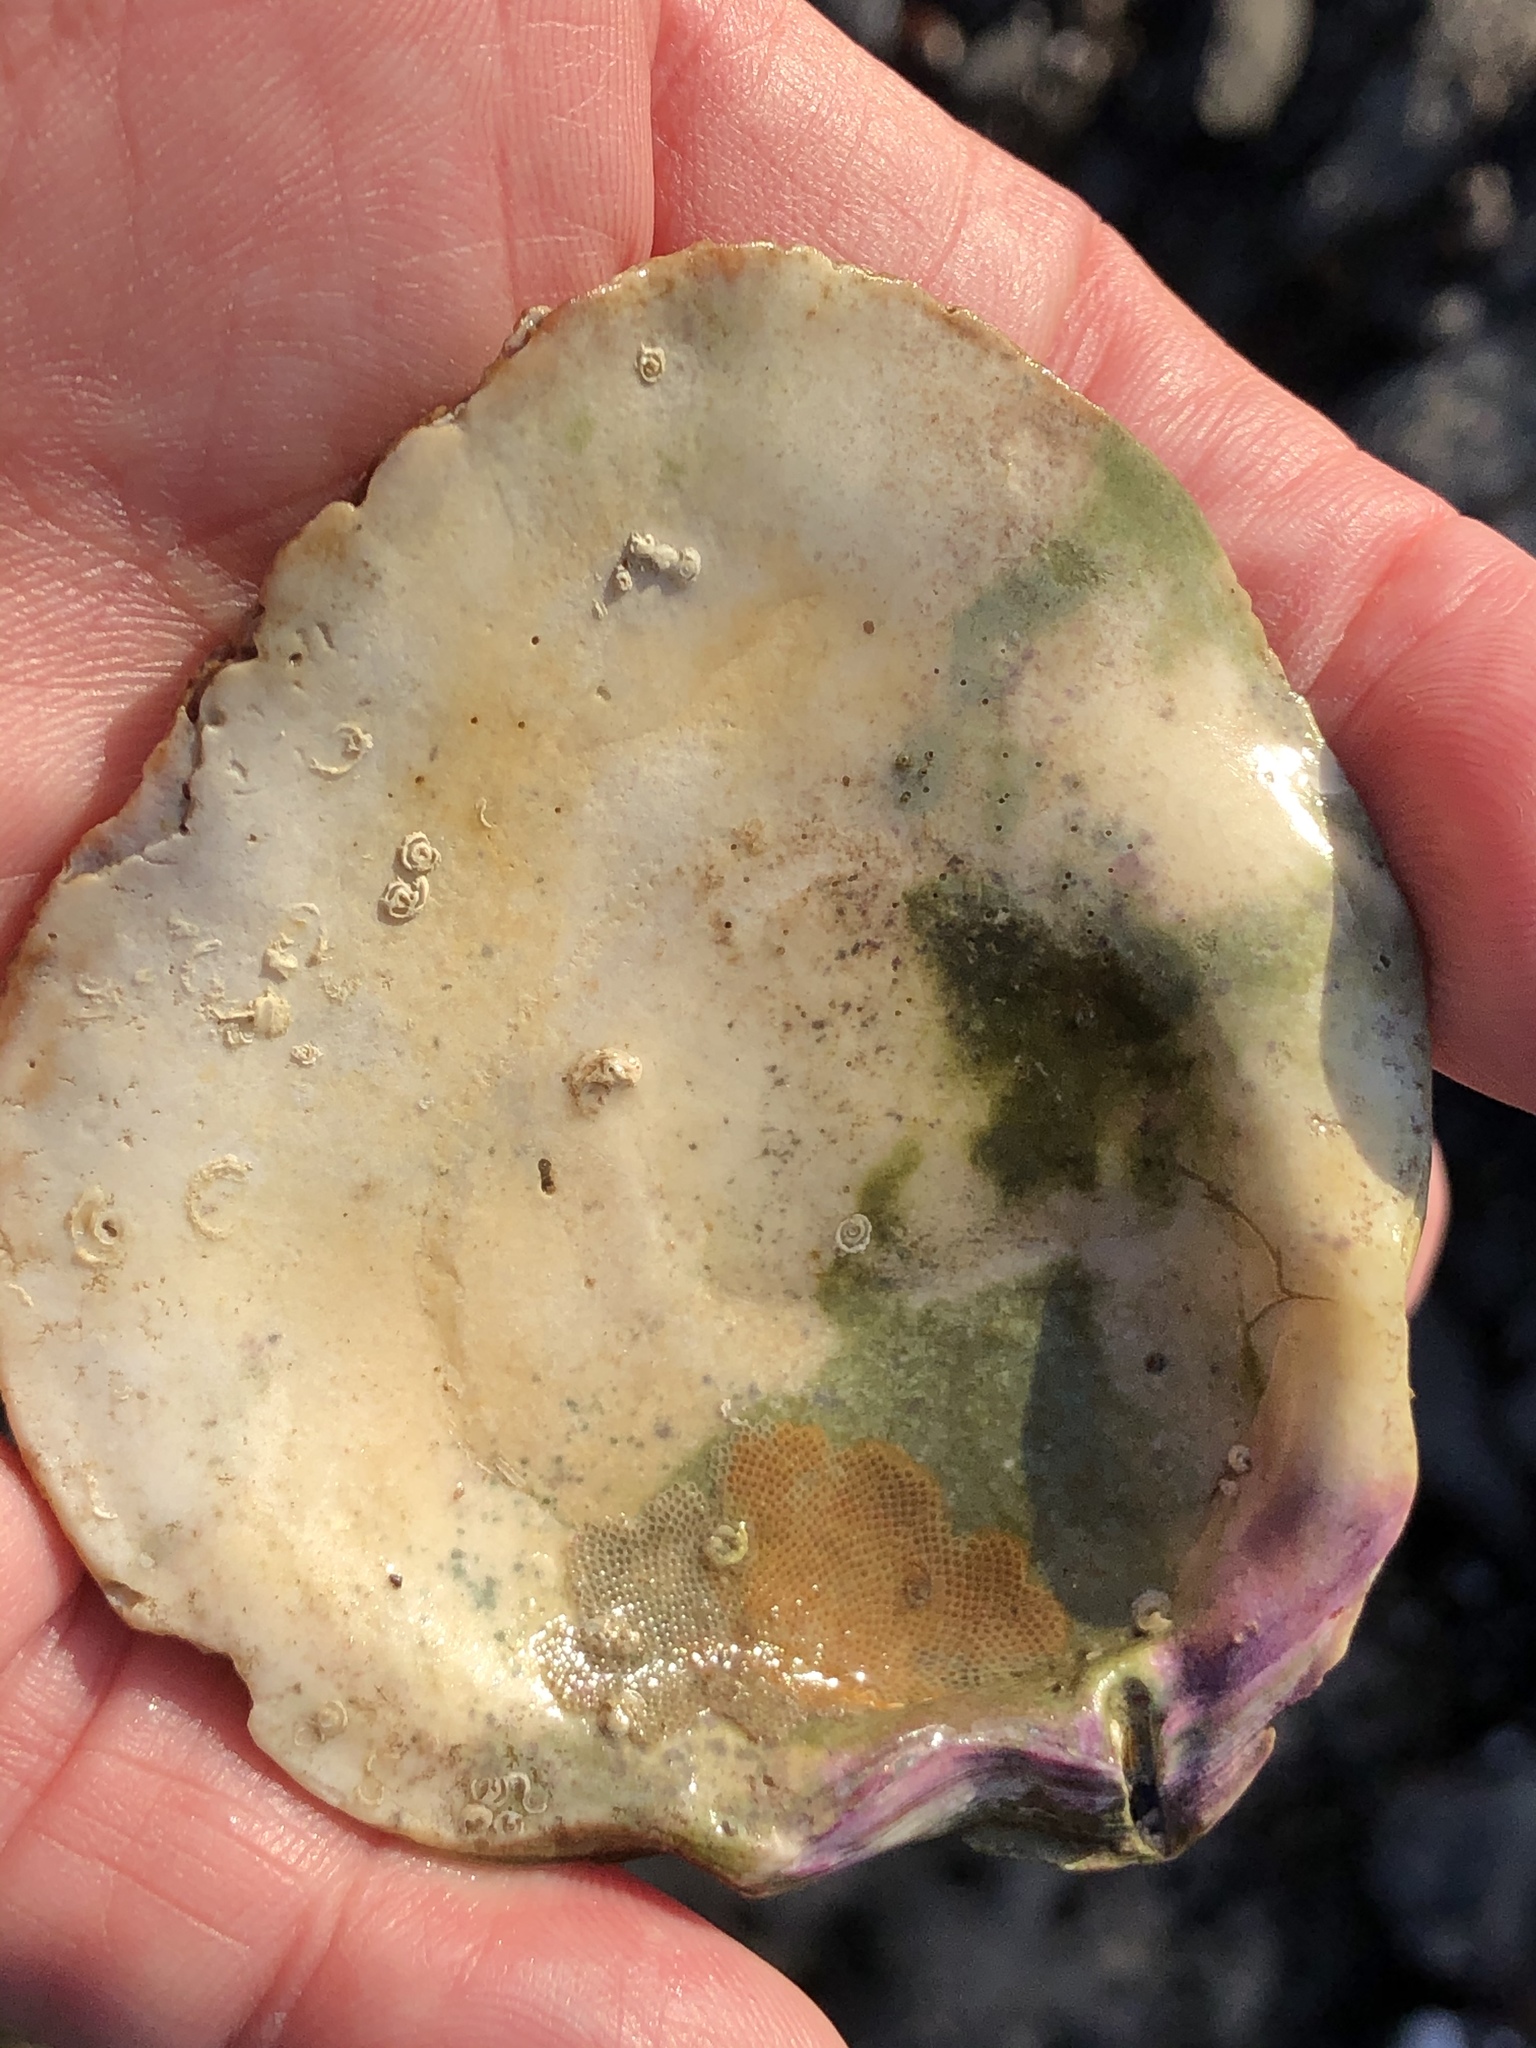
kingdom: Animalia
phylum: Mollusca
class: Bivalvia
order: Pectinida
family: Pectinidae
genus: Crassadoma
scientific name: Crassadoma gigantea
